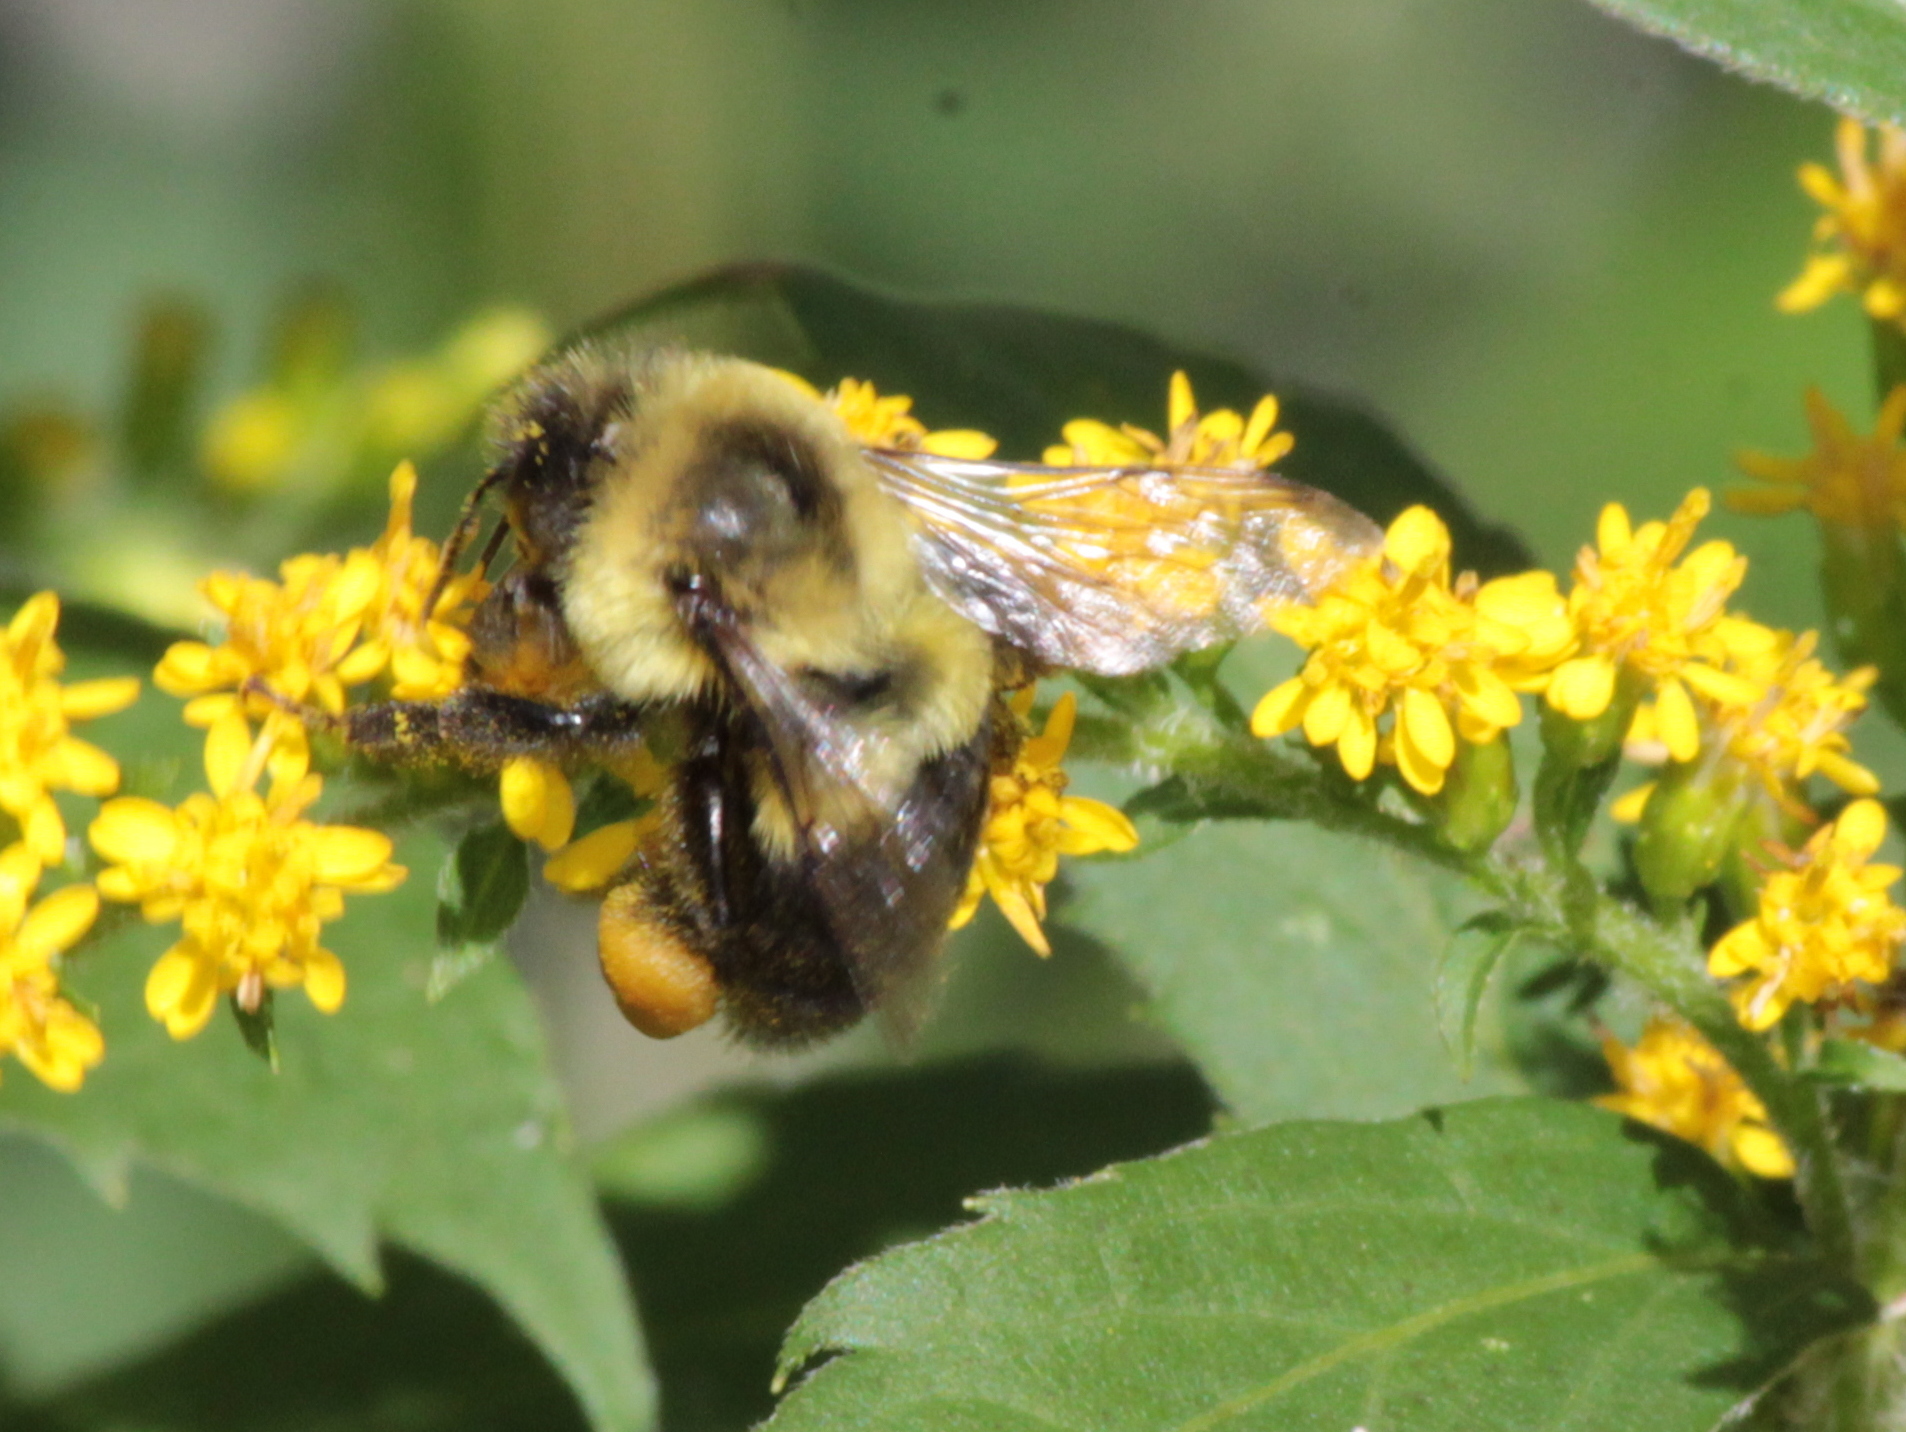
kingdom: Animalia
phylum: Arthropoda
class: Insecta
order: Hymenoptera
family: Apidae
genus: Bombus
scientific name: Bombus impatiens
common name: Common eastern bumble bee
